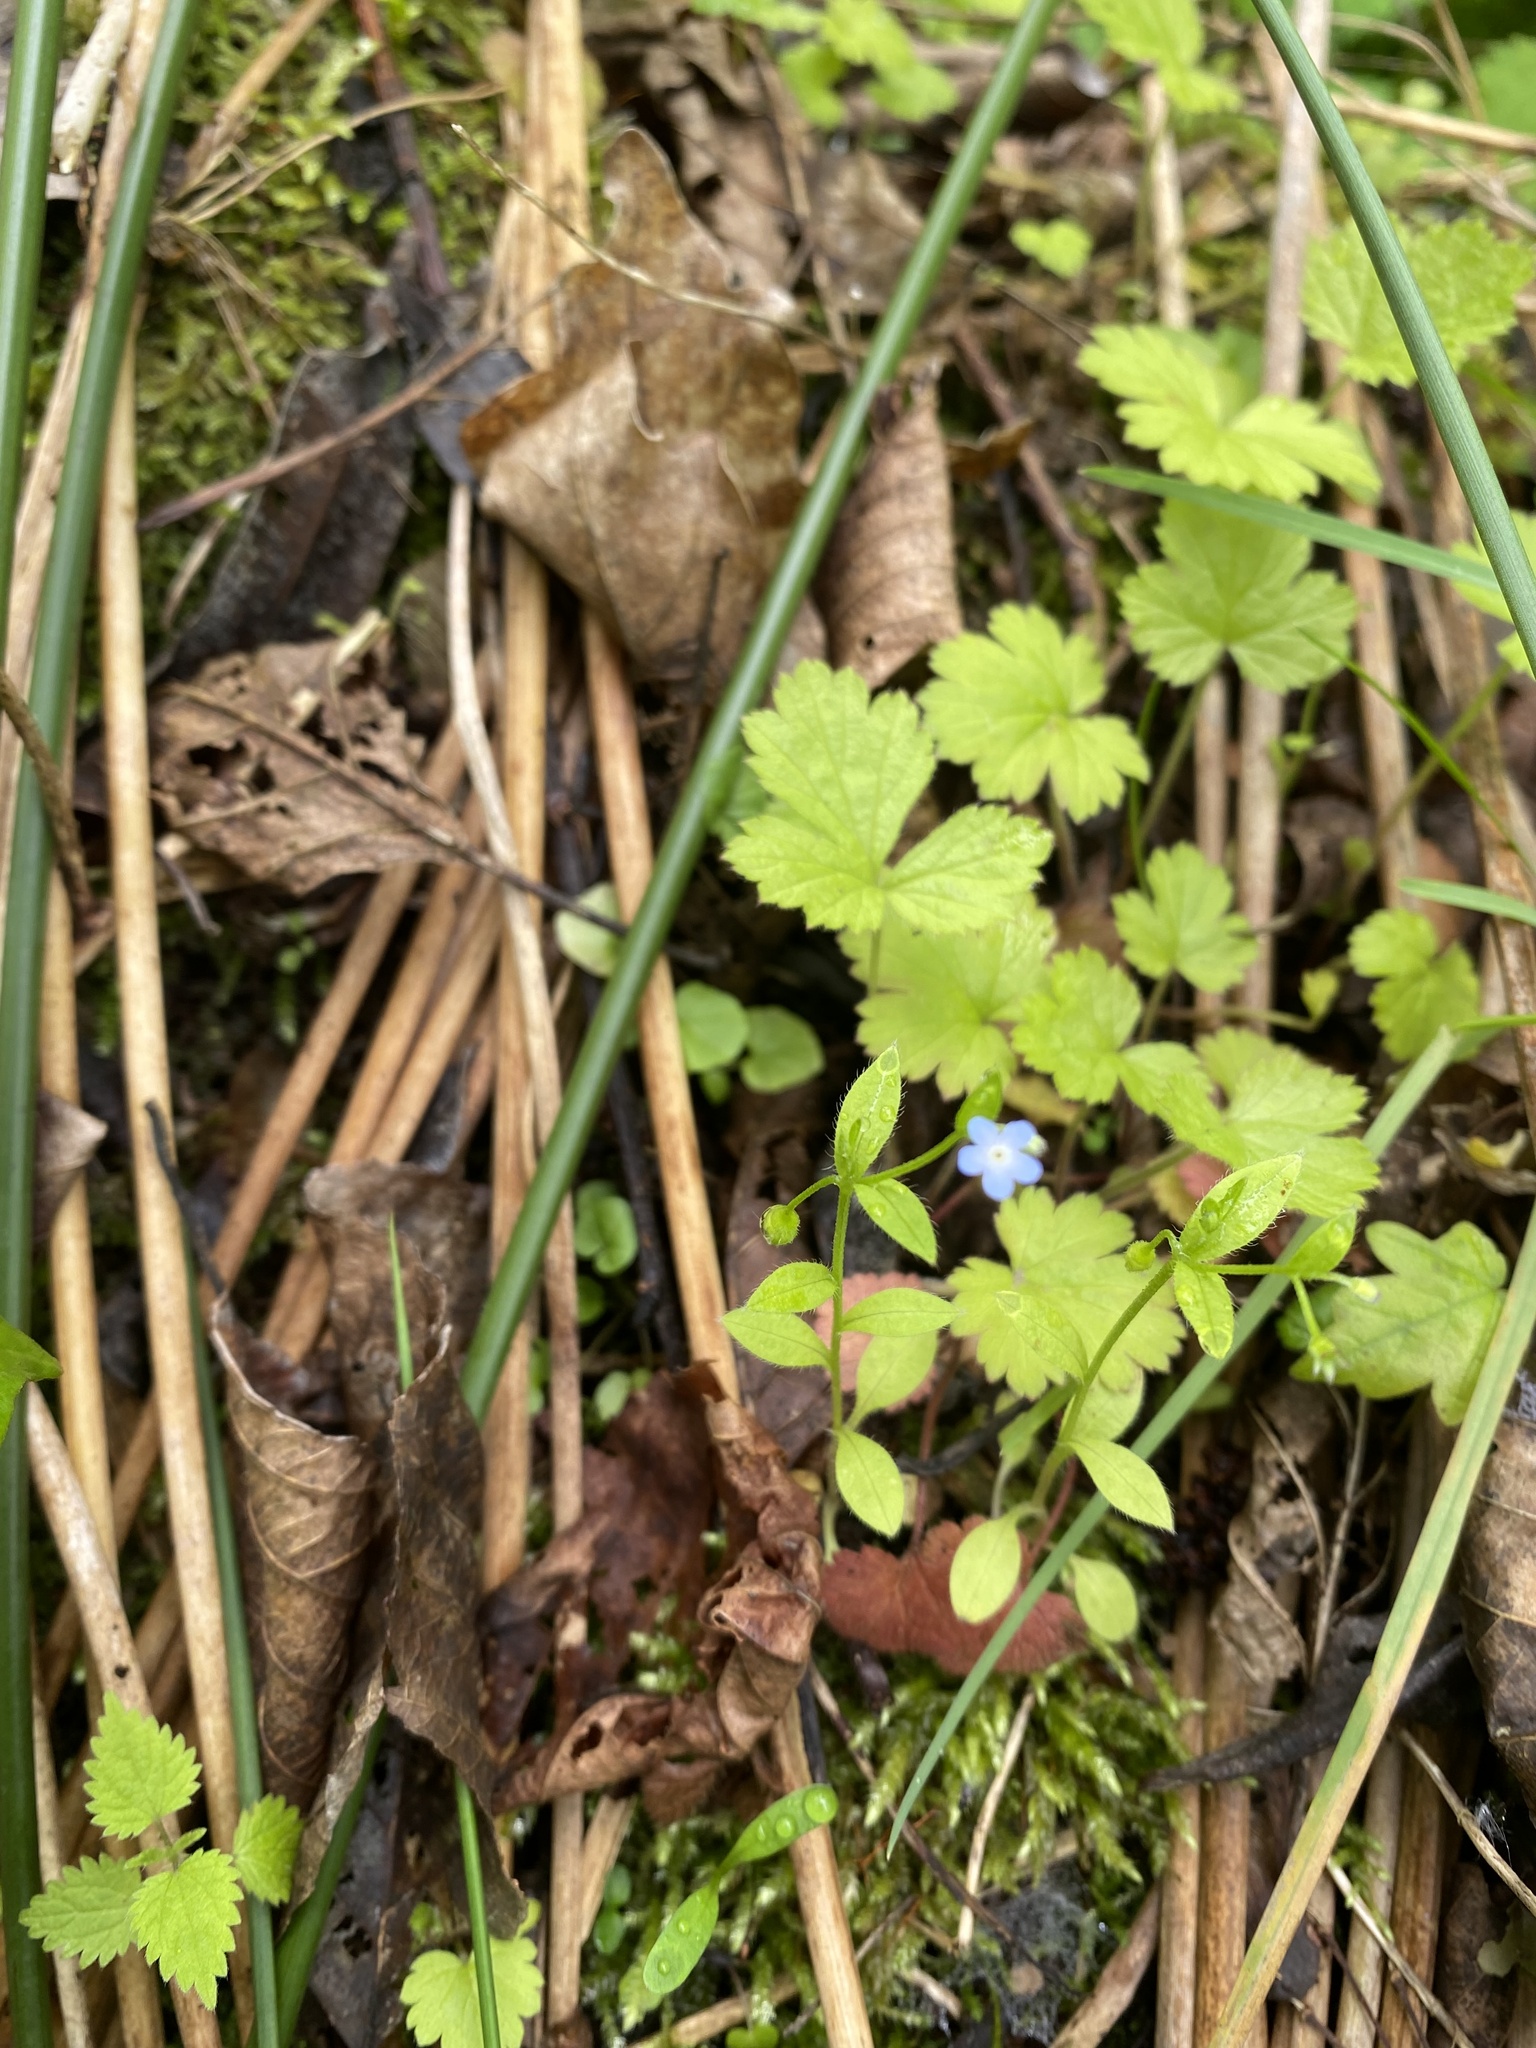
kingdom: Plantae
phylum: Tracheophyta
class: Magnoliopsida
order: Boraginales
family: Boraginaceae
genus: Myosotis
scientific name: Myosotis sparsiflora
